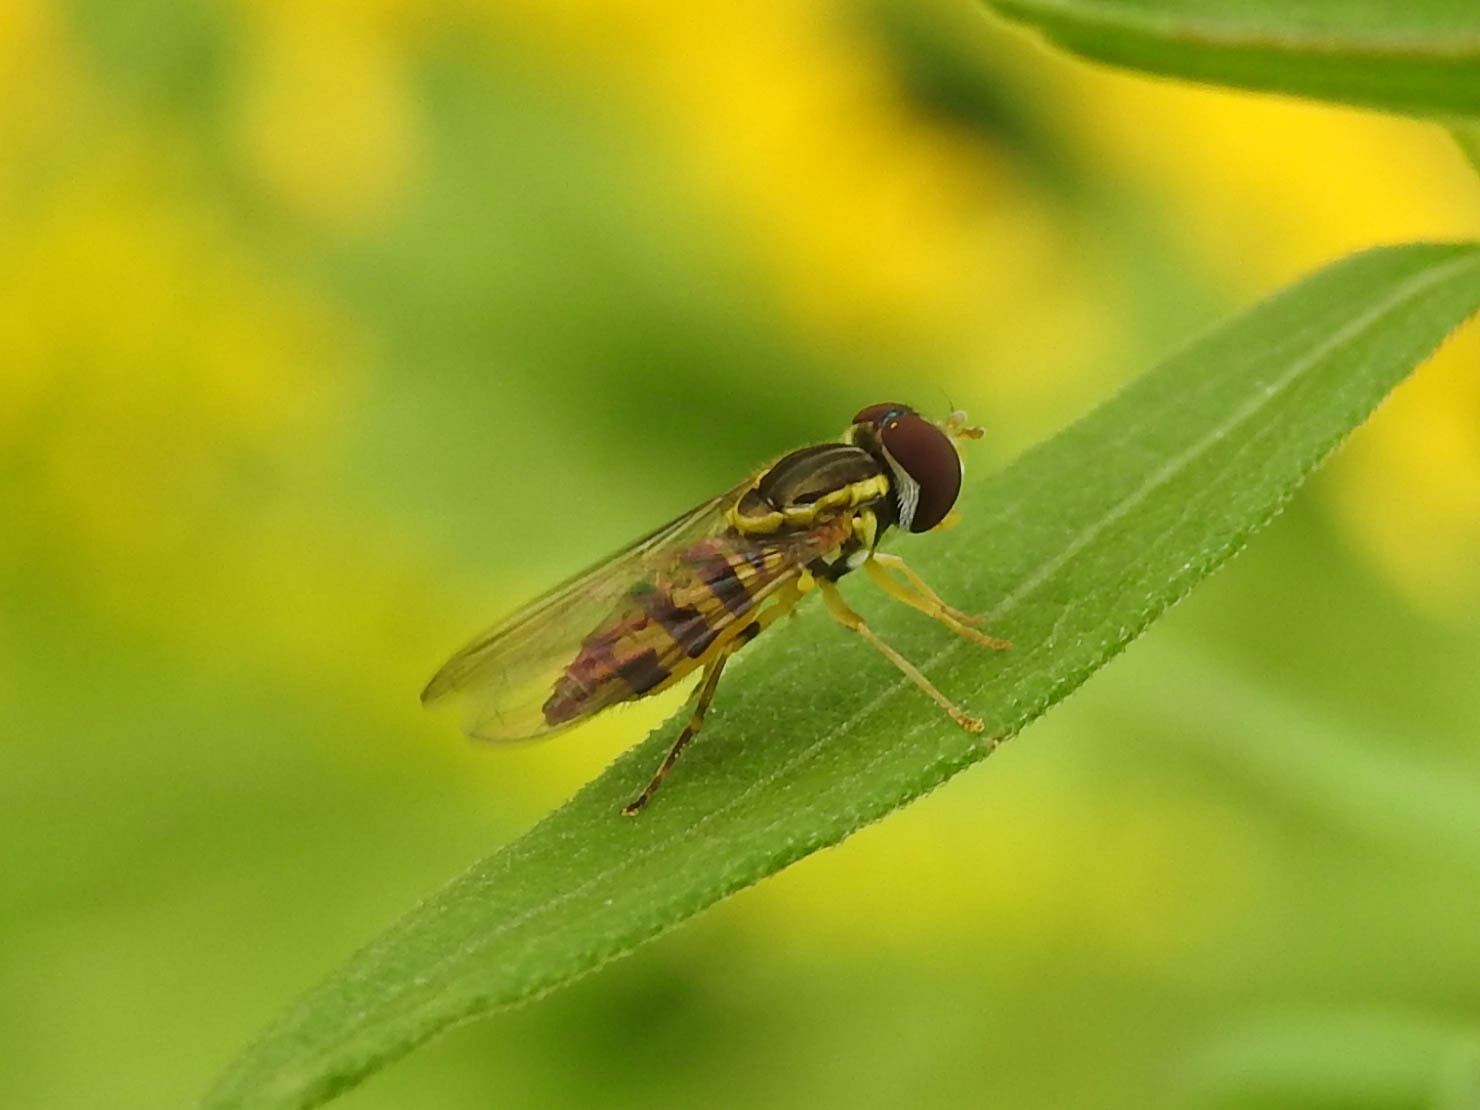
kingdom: Animalia
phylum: Arthropoda
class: Insecta
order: Diptera
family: Syrphidae
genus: Toxomerus
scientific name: Toxomerus geminatus
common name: Eastern calligrapher
